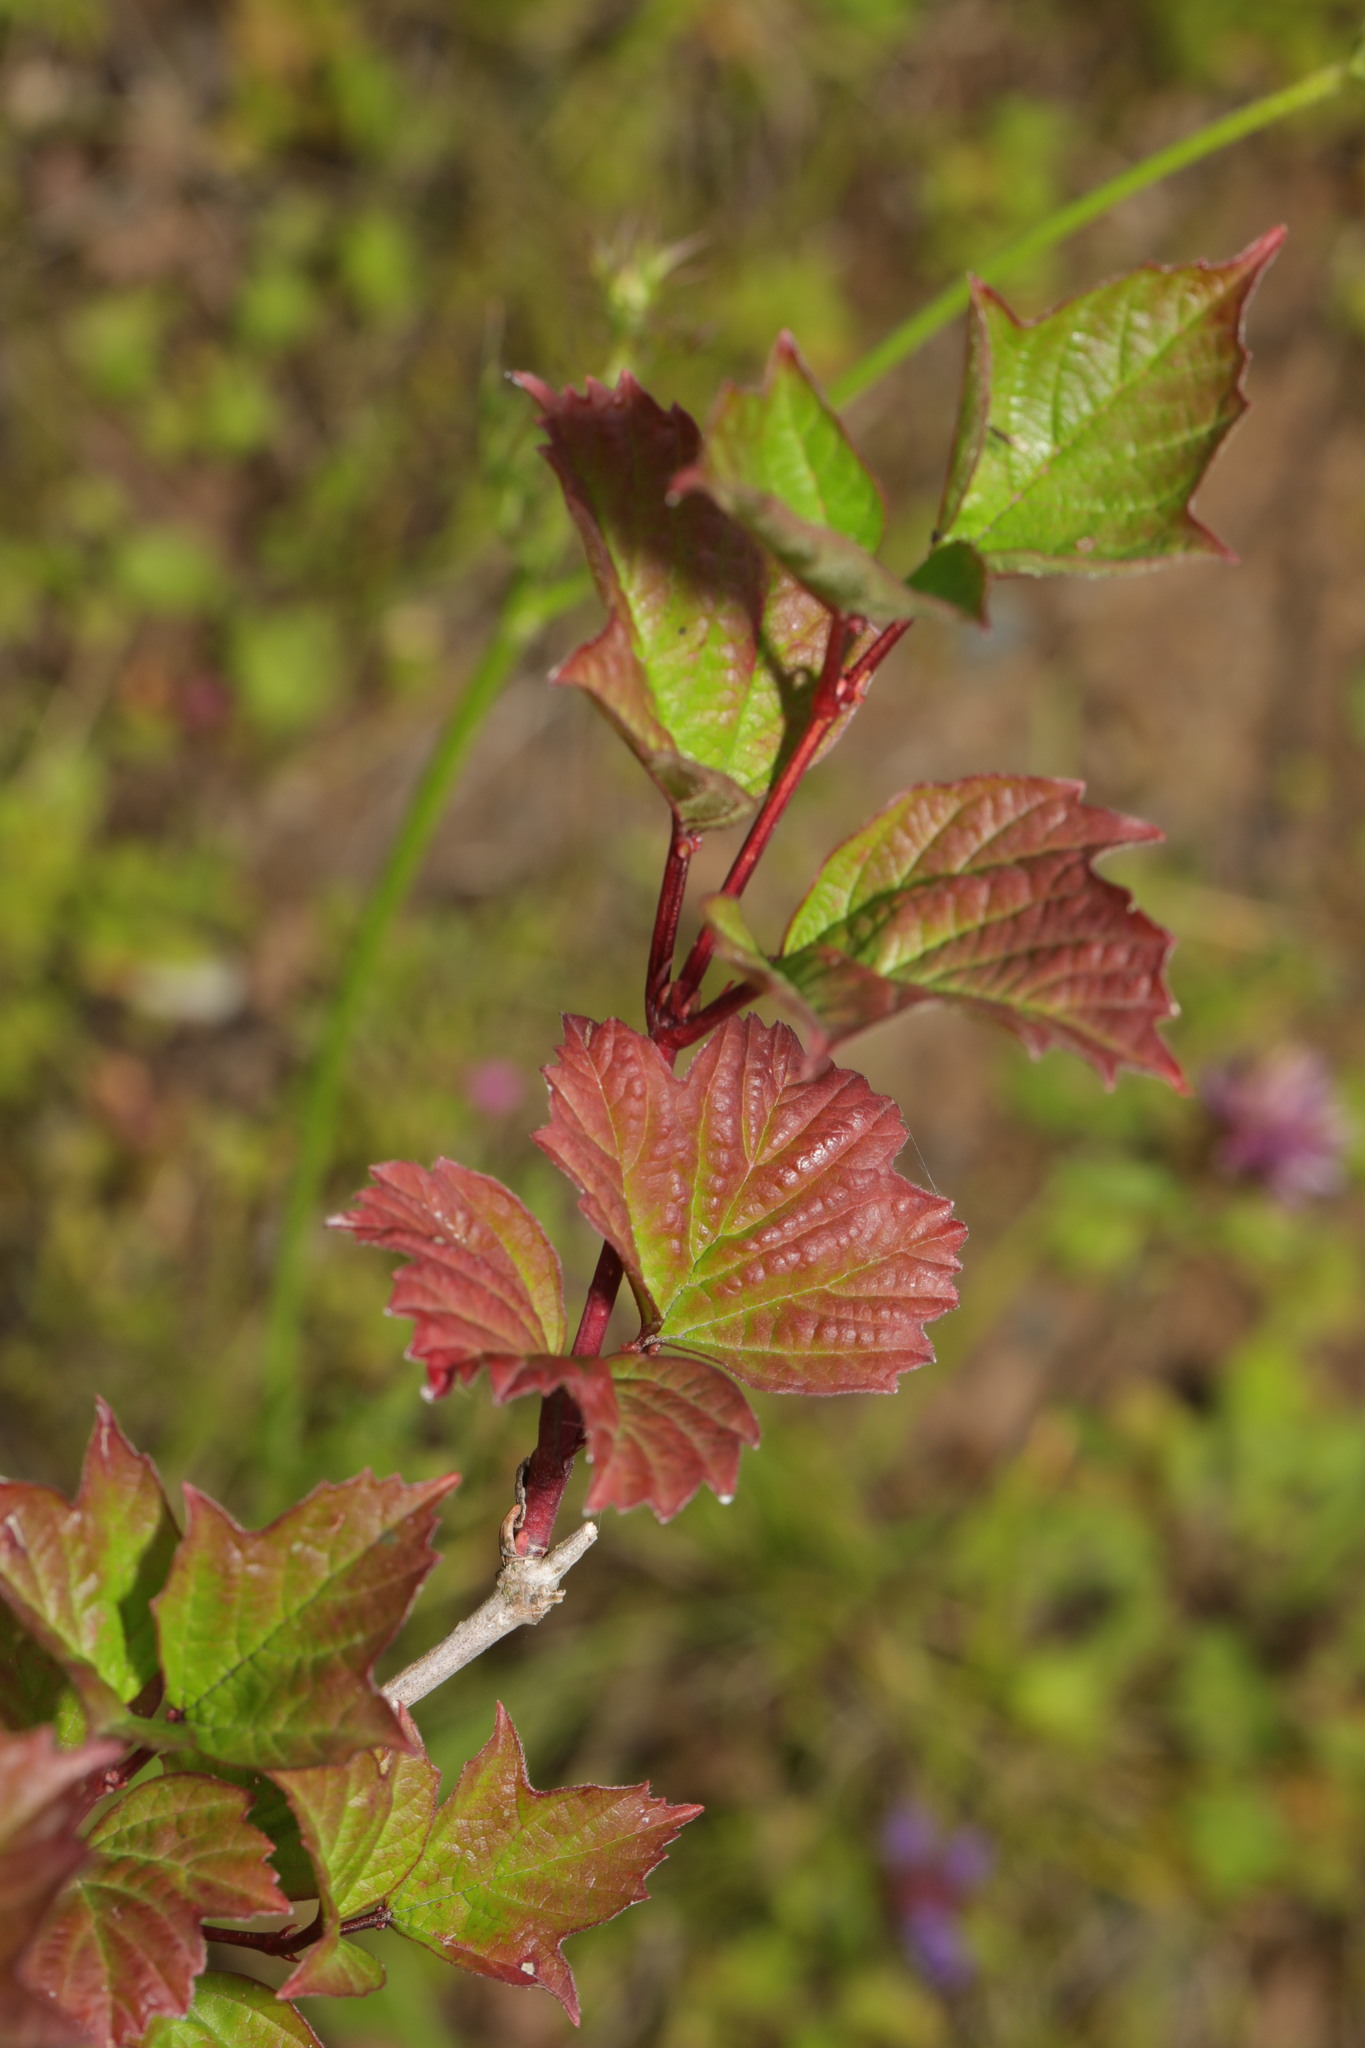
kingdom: Plantae
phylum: Tracheophyta
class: Magnoliopsida
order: Dipsacales
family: Viburnaceae
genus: Viburnum
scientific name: Viburnum opulus
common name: Guelder-rose
